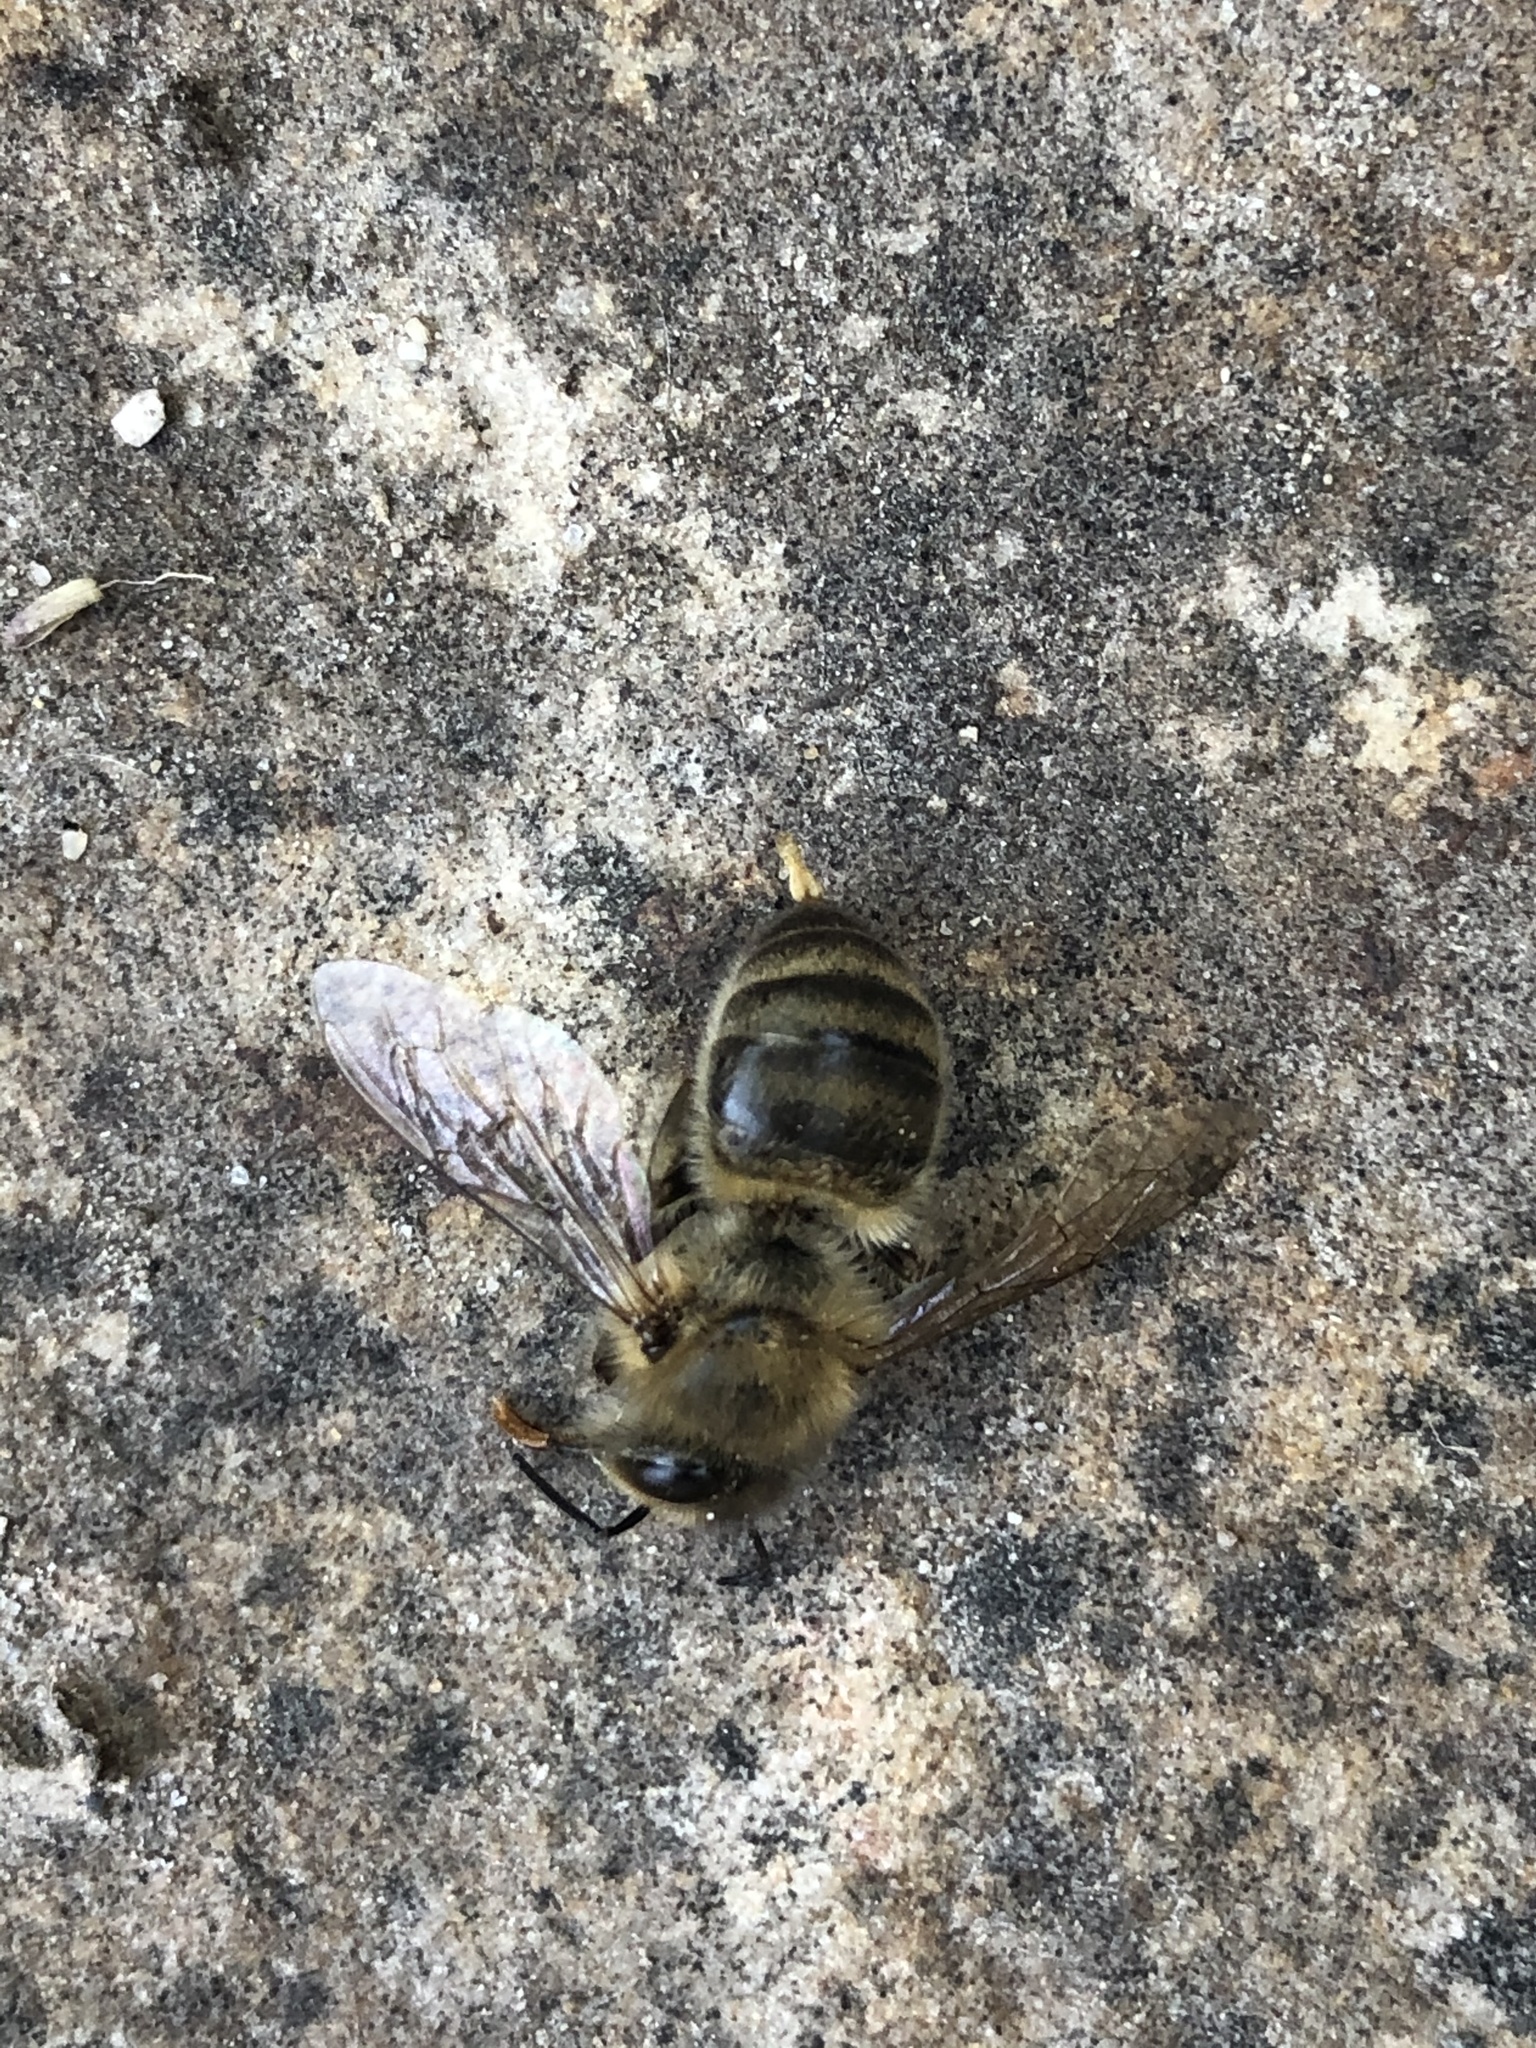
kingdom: Animalia
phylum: Arthropoda
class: Insecta
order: Hymenoptera
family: Apidae
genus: Apis
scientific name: Apis mellifera
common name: Honey bee
